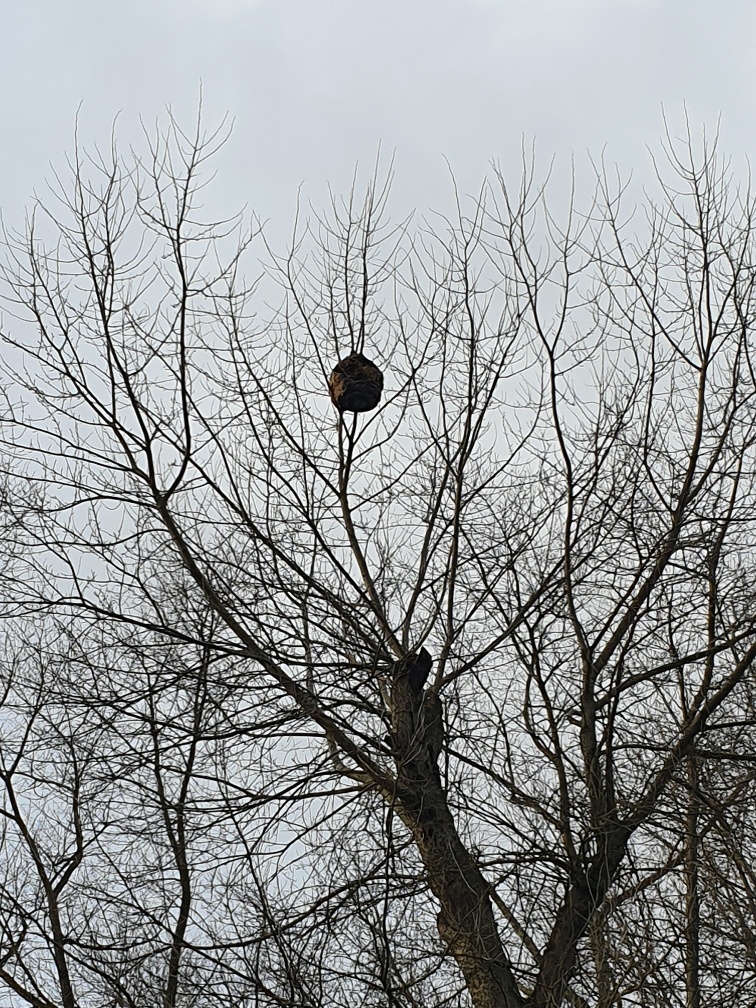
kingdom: Animalia
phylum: Arthropoda
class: Insecta
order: Hymenoptera
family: Vespidae
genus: Vespa
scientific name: Vespa velutina
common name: Asian hornet
